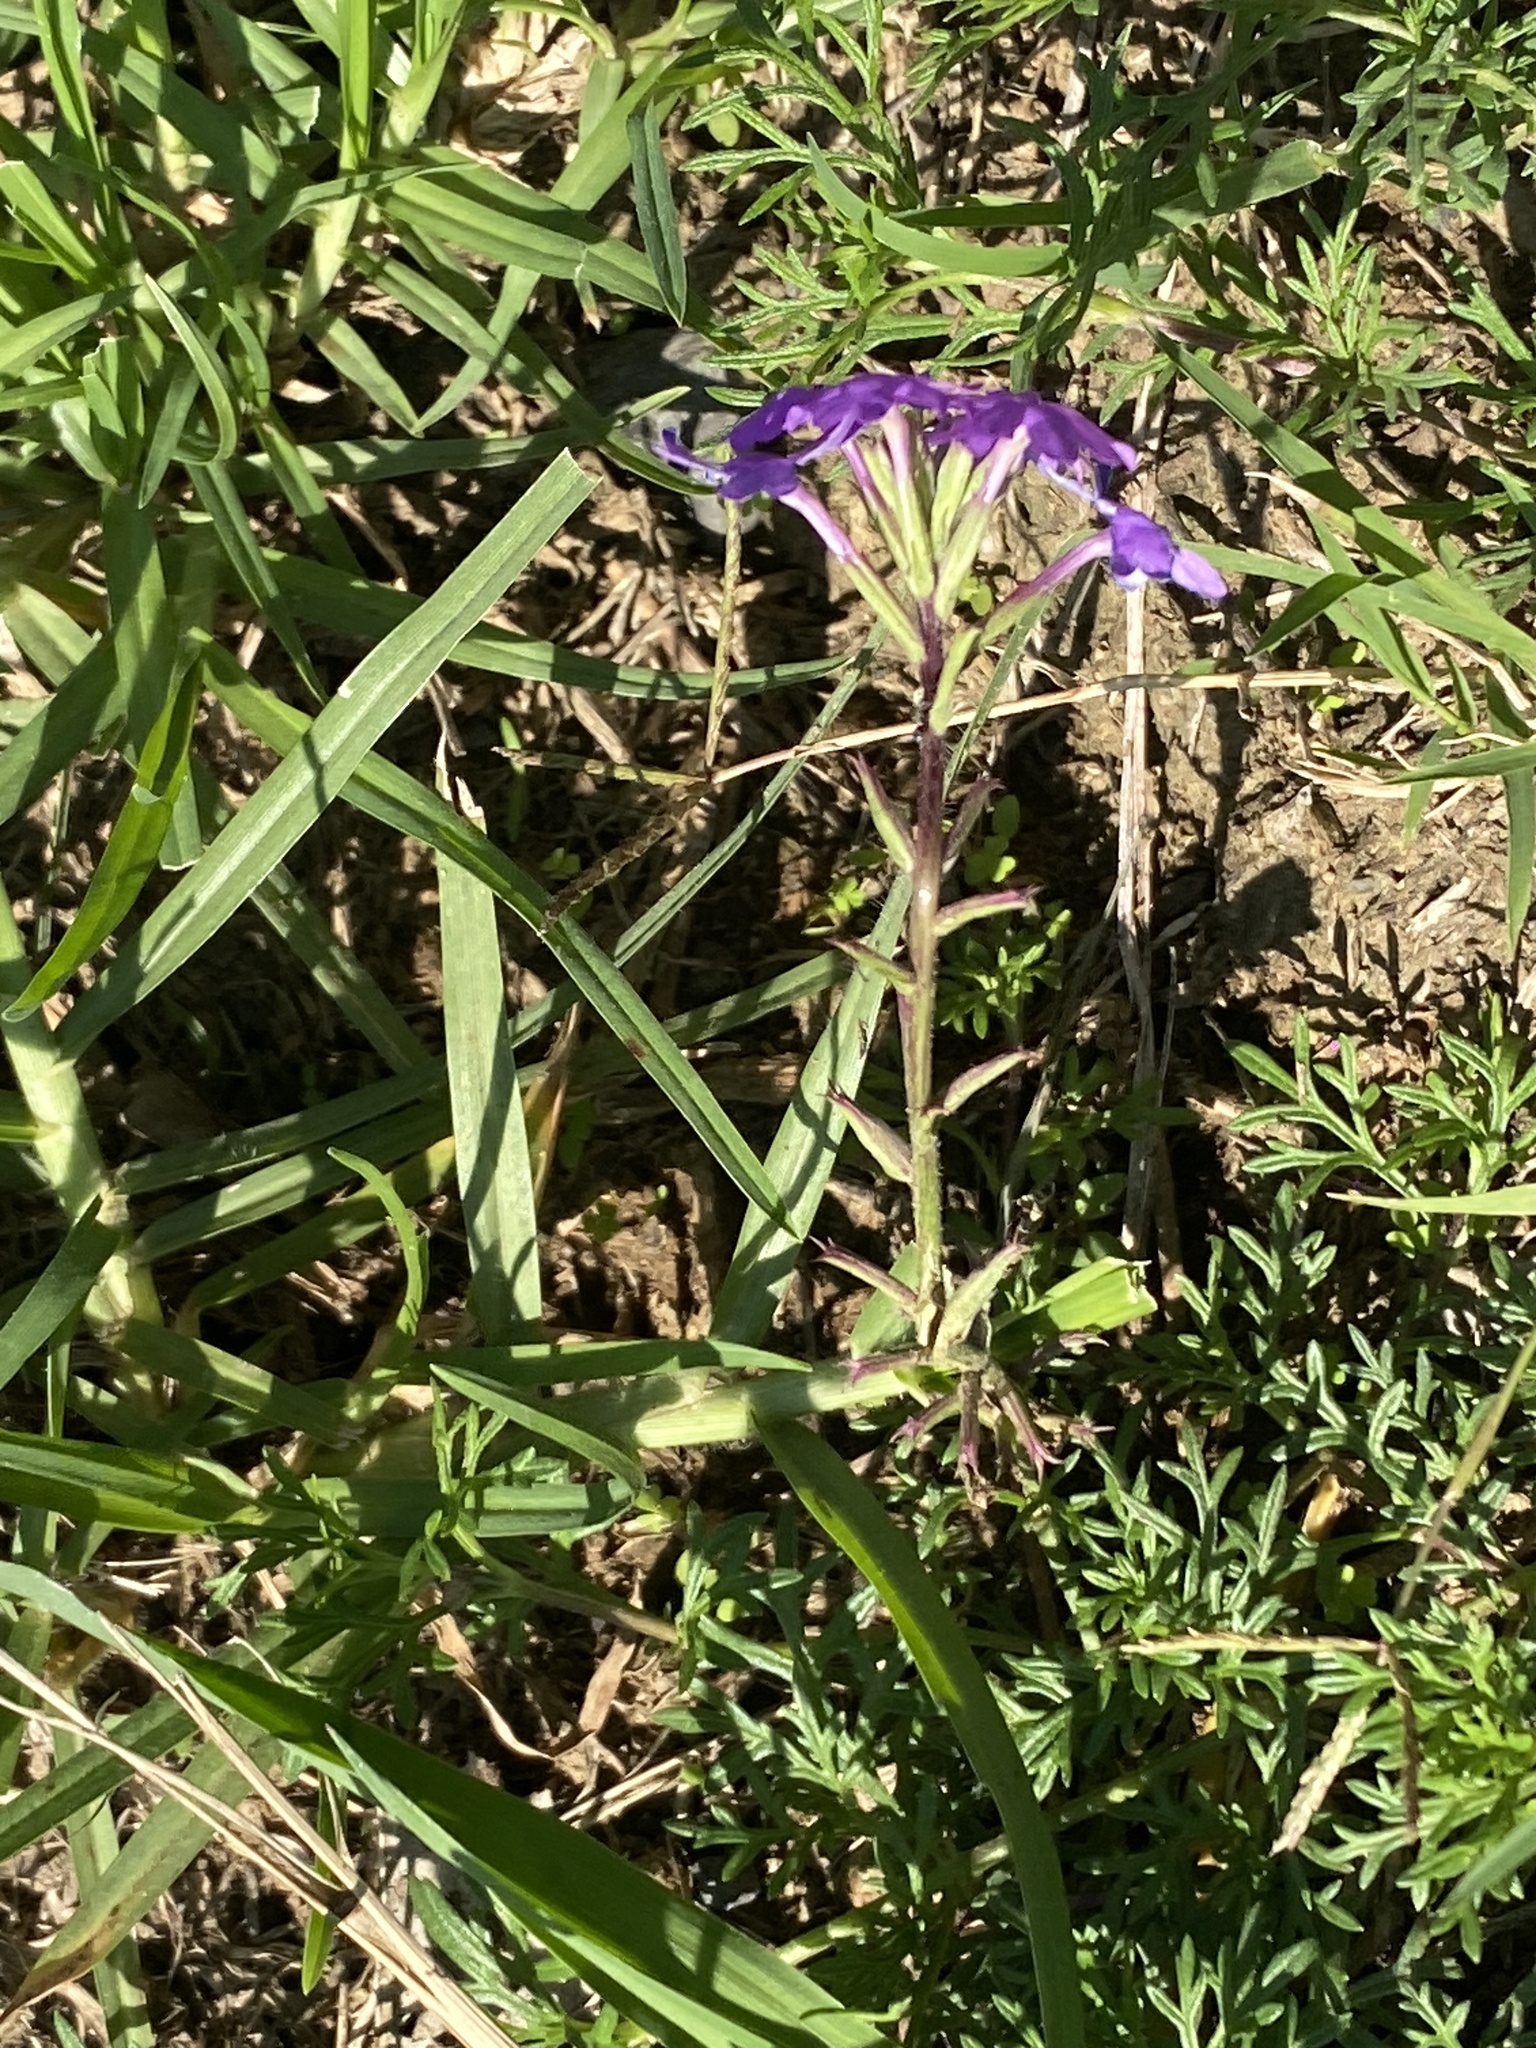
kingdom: Plantae
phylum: Tracheophyta
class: Magnoliopsida
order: Lamiales
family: Verbenaceae
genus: Verbena
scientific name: Verbena aristigera
